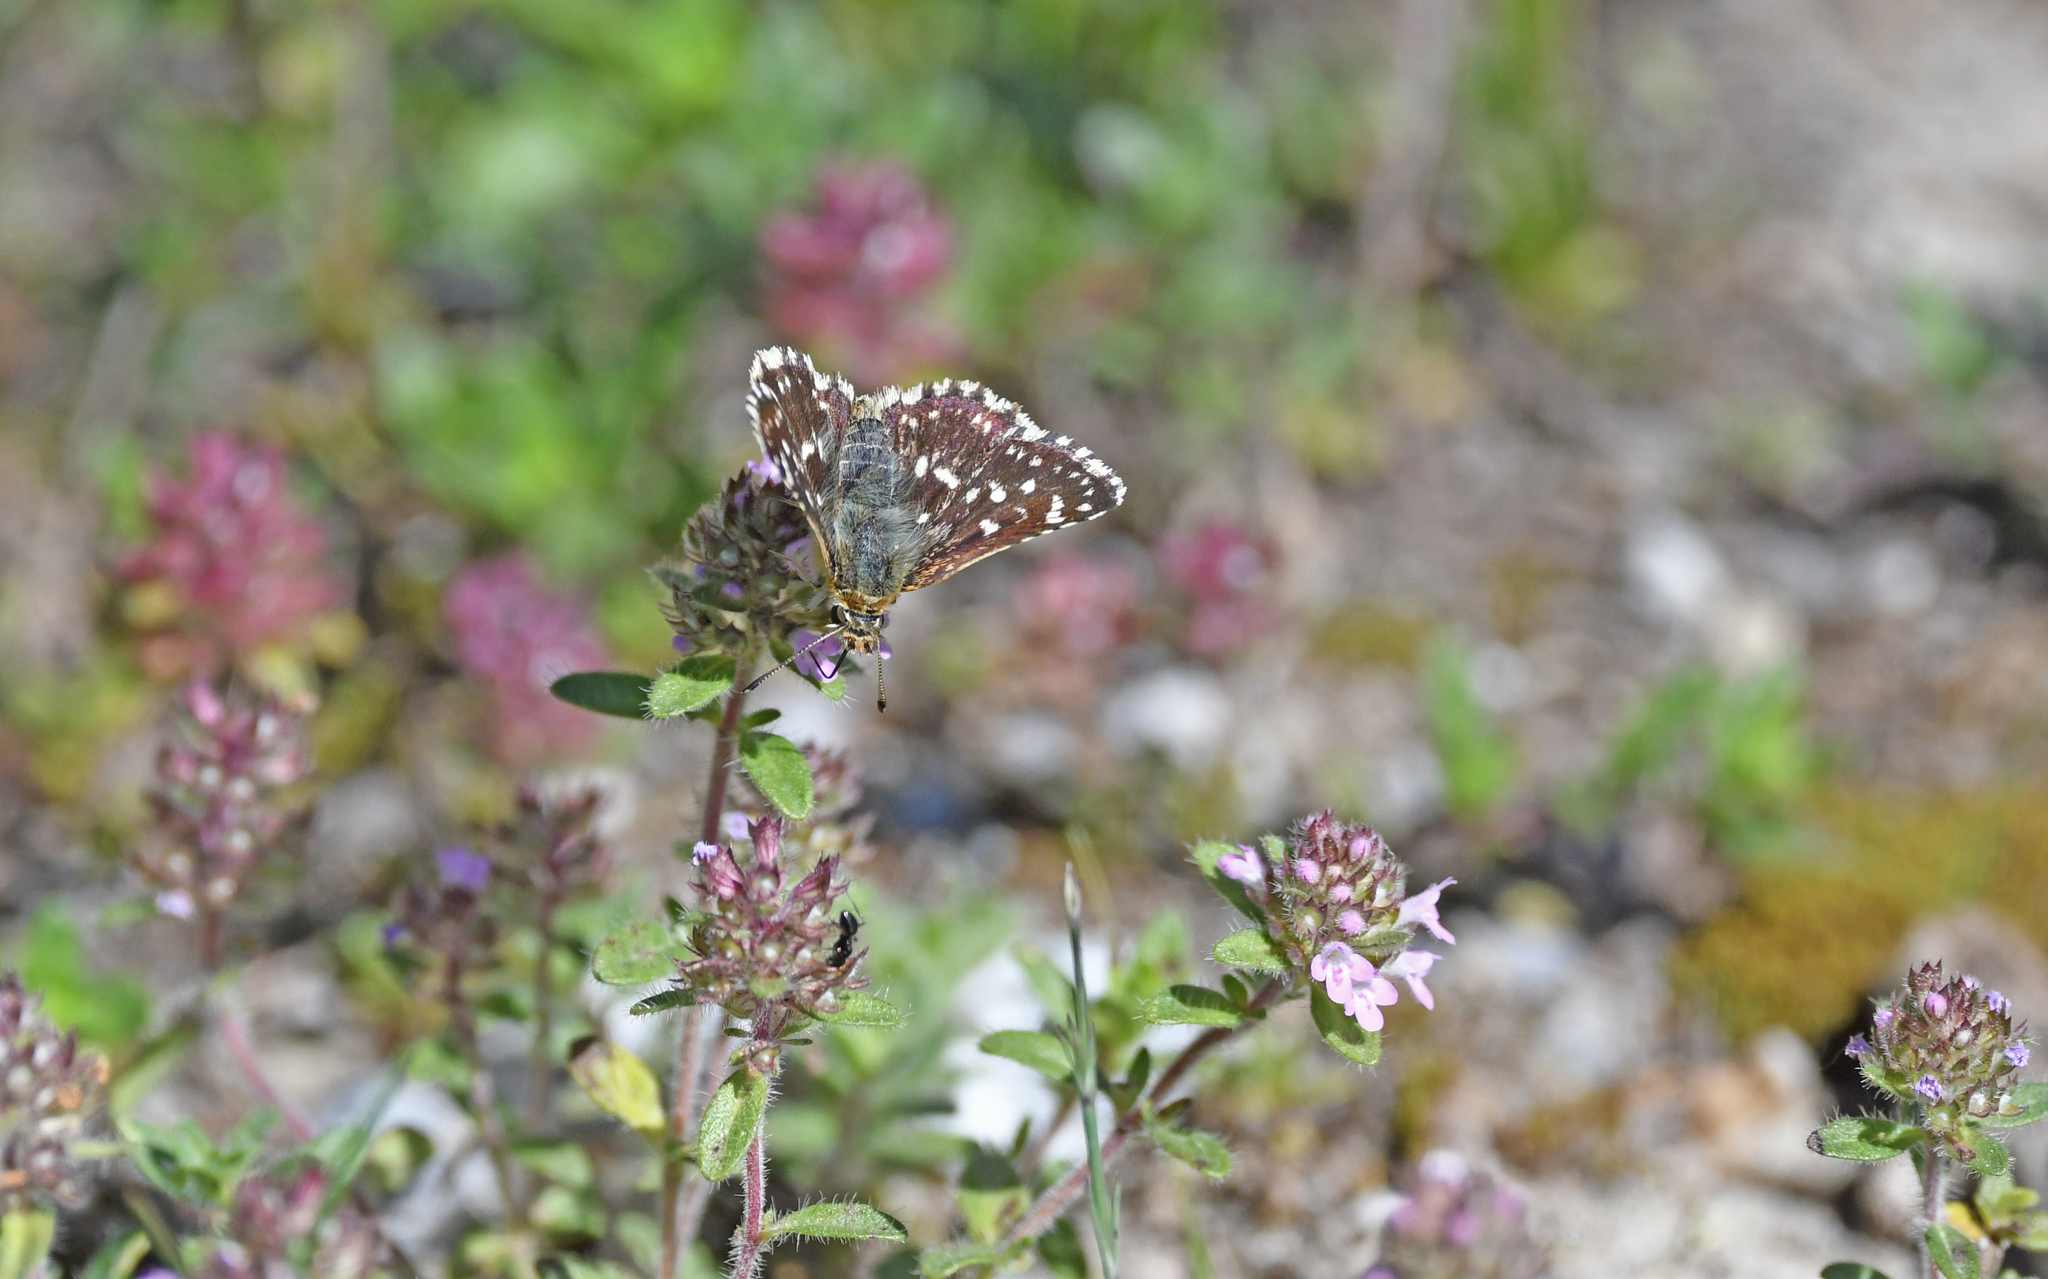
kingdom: Animalia
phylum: Arthropoda
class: Insecta
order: Lepidoptera
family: Hesperiidae
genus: Spialia
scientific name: Spialia sertorius
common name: Red underwing skipper
